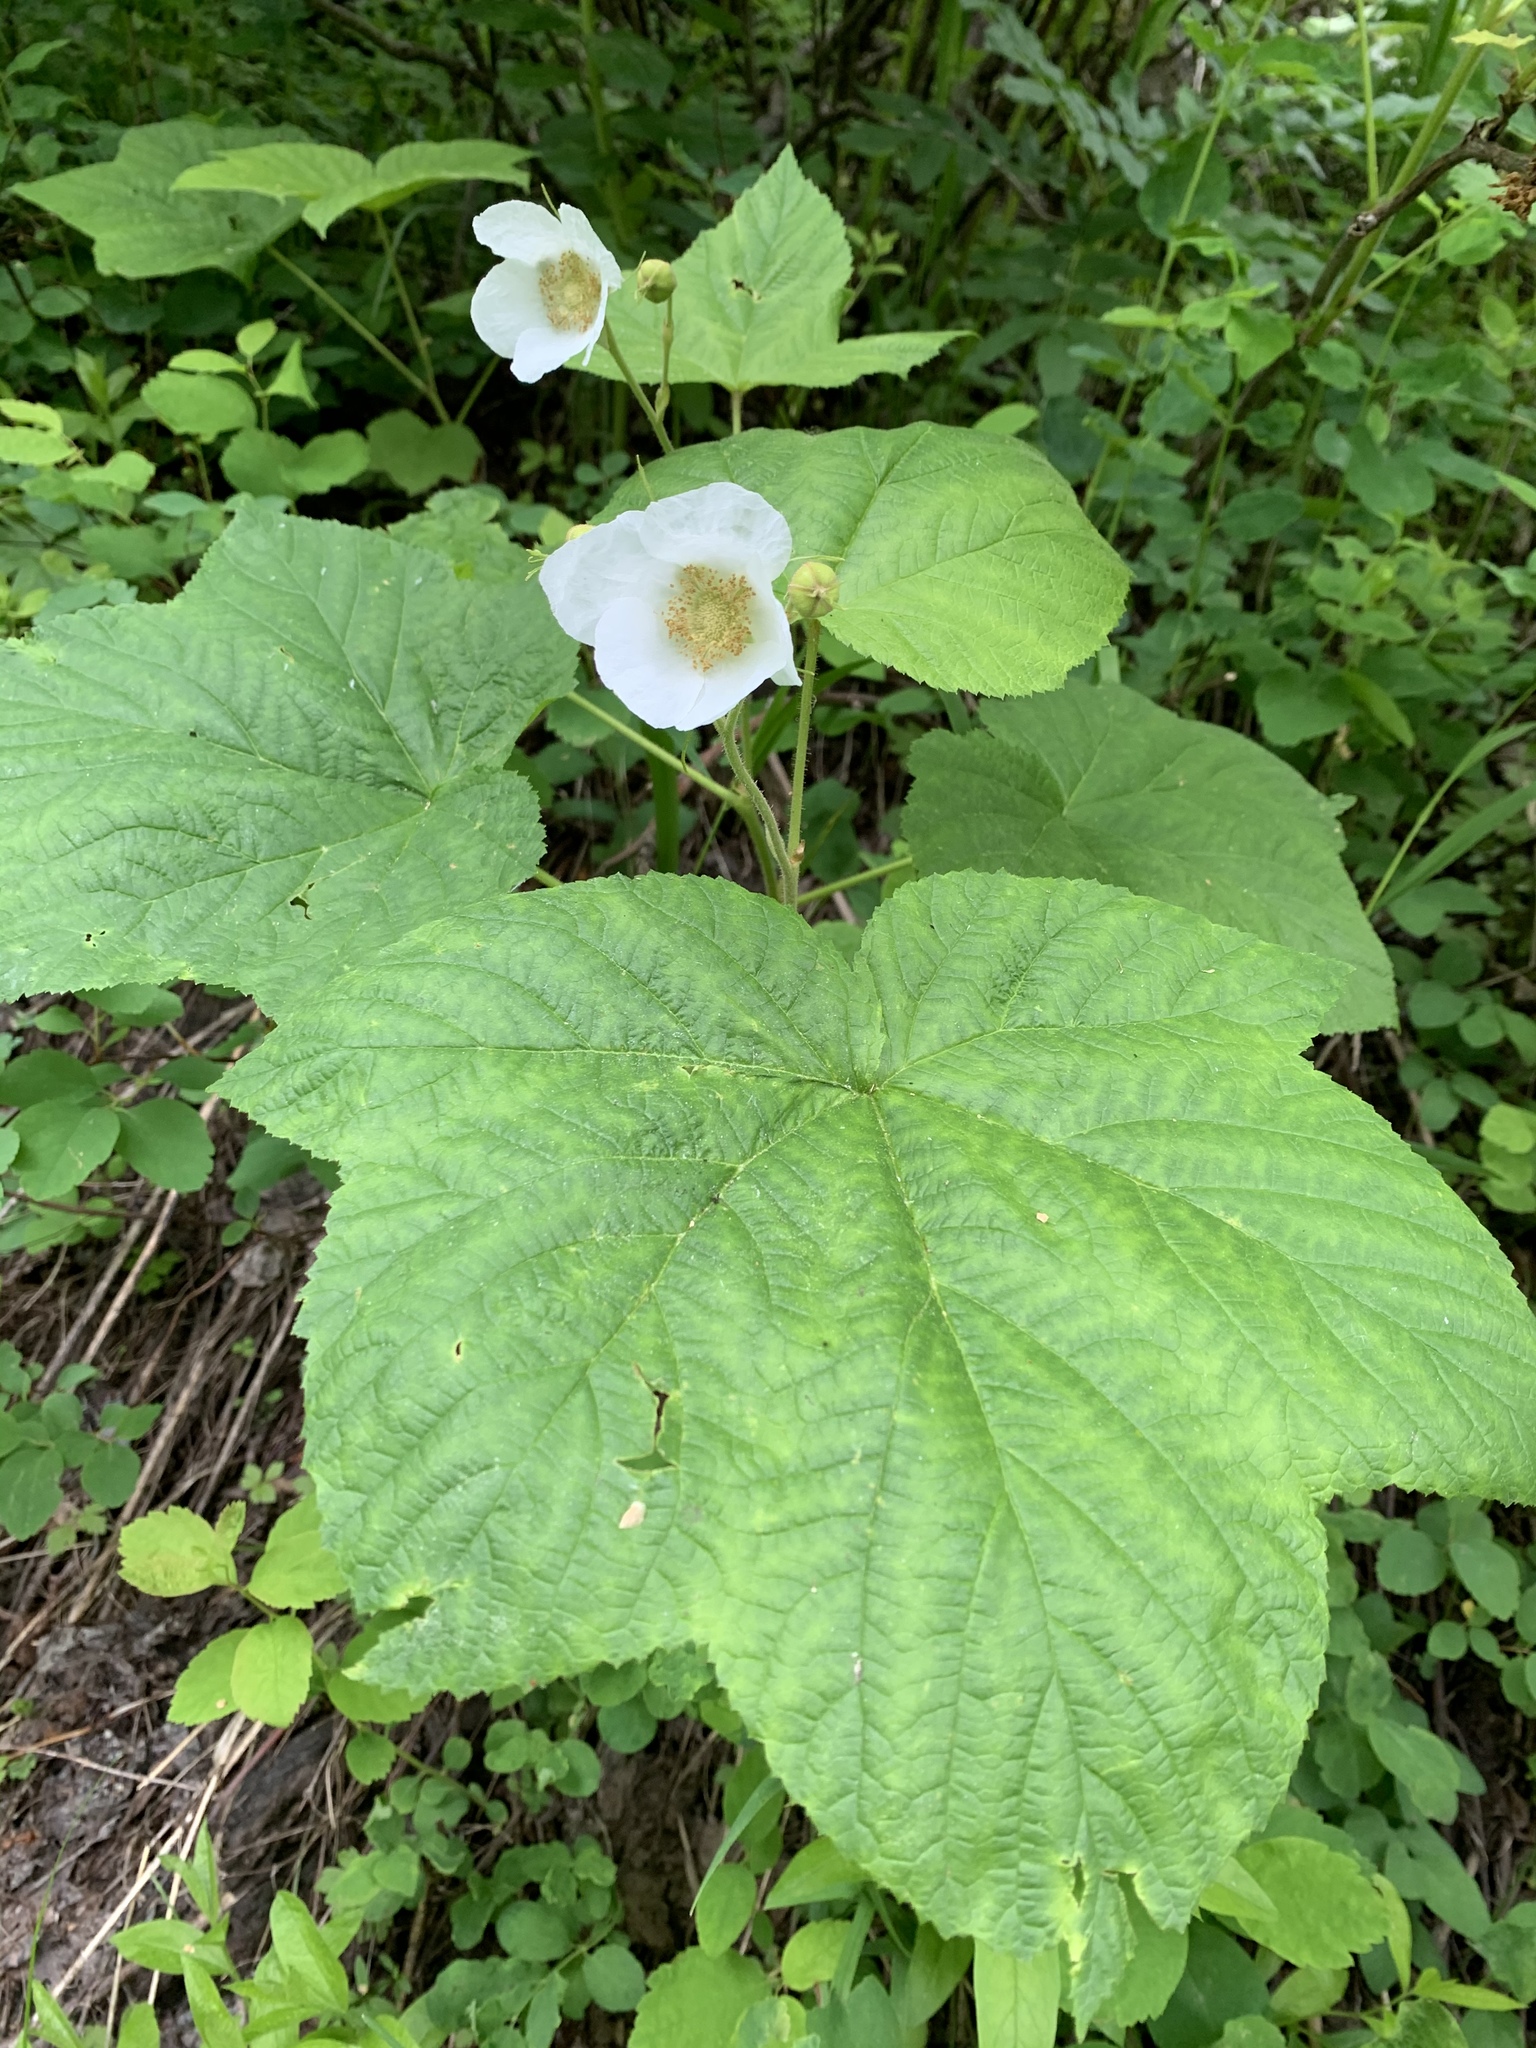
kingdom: Plantae
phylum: Tracheophyta
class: Magnoliopsida
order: Rosales
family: Rosaceae
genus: Rubus
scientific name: Rubus parviflorus
